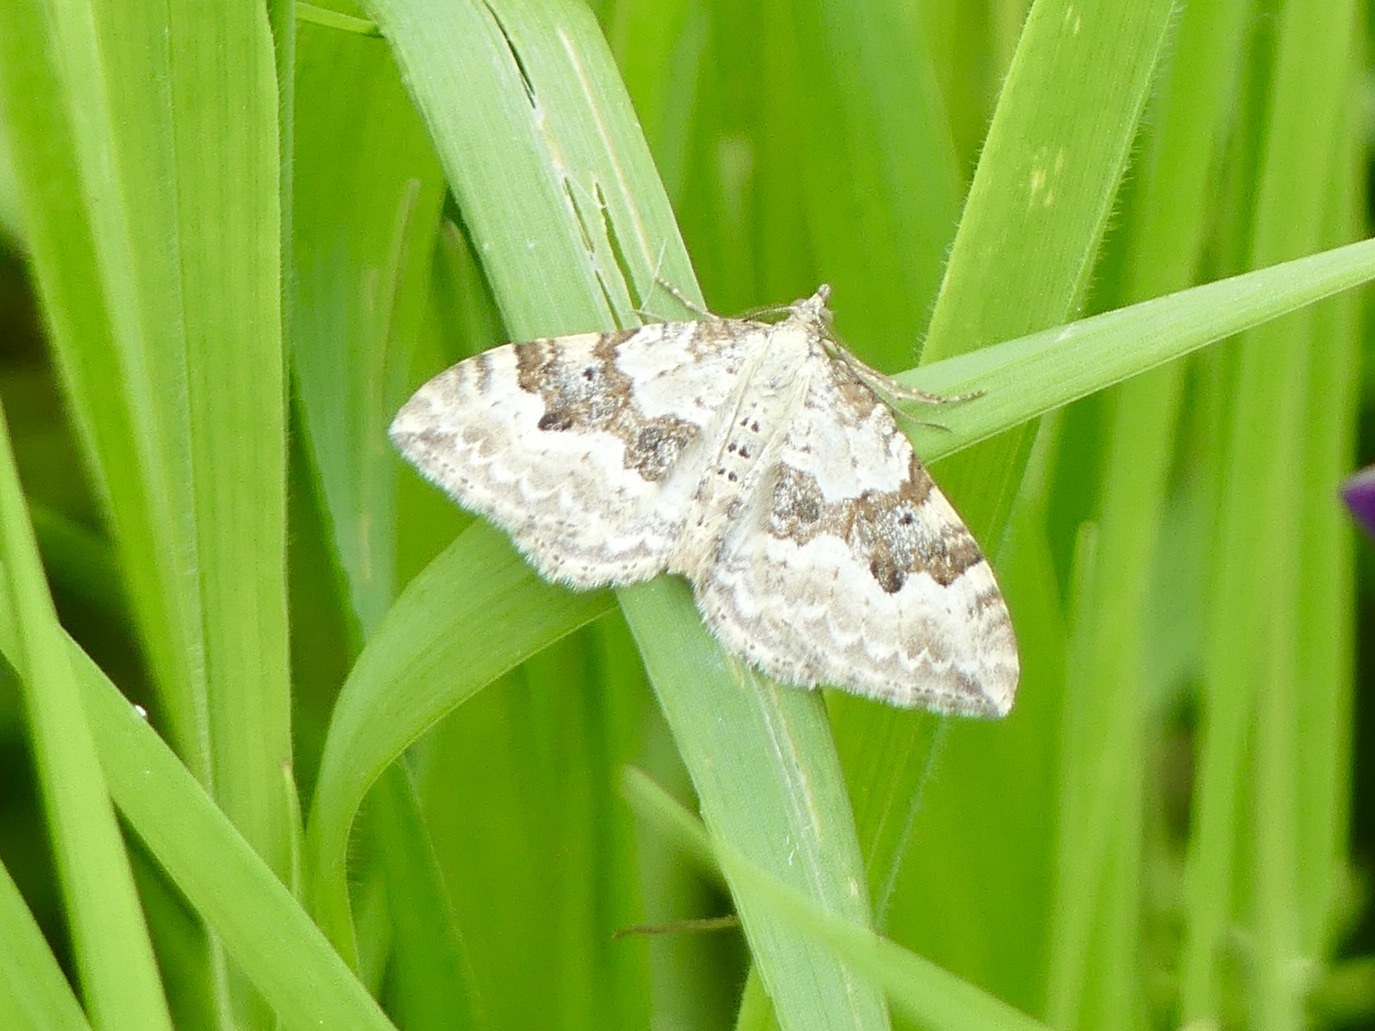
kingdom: Animalia
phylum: Arthropoda
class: Insecta
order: Lepidoptera
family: Geometridae
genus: Xanthorhoe
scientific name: Xanthorhoe montanata
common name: Silver-ground carpet
